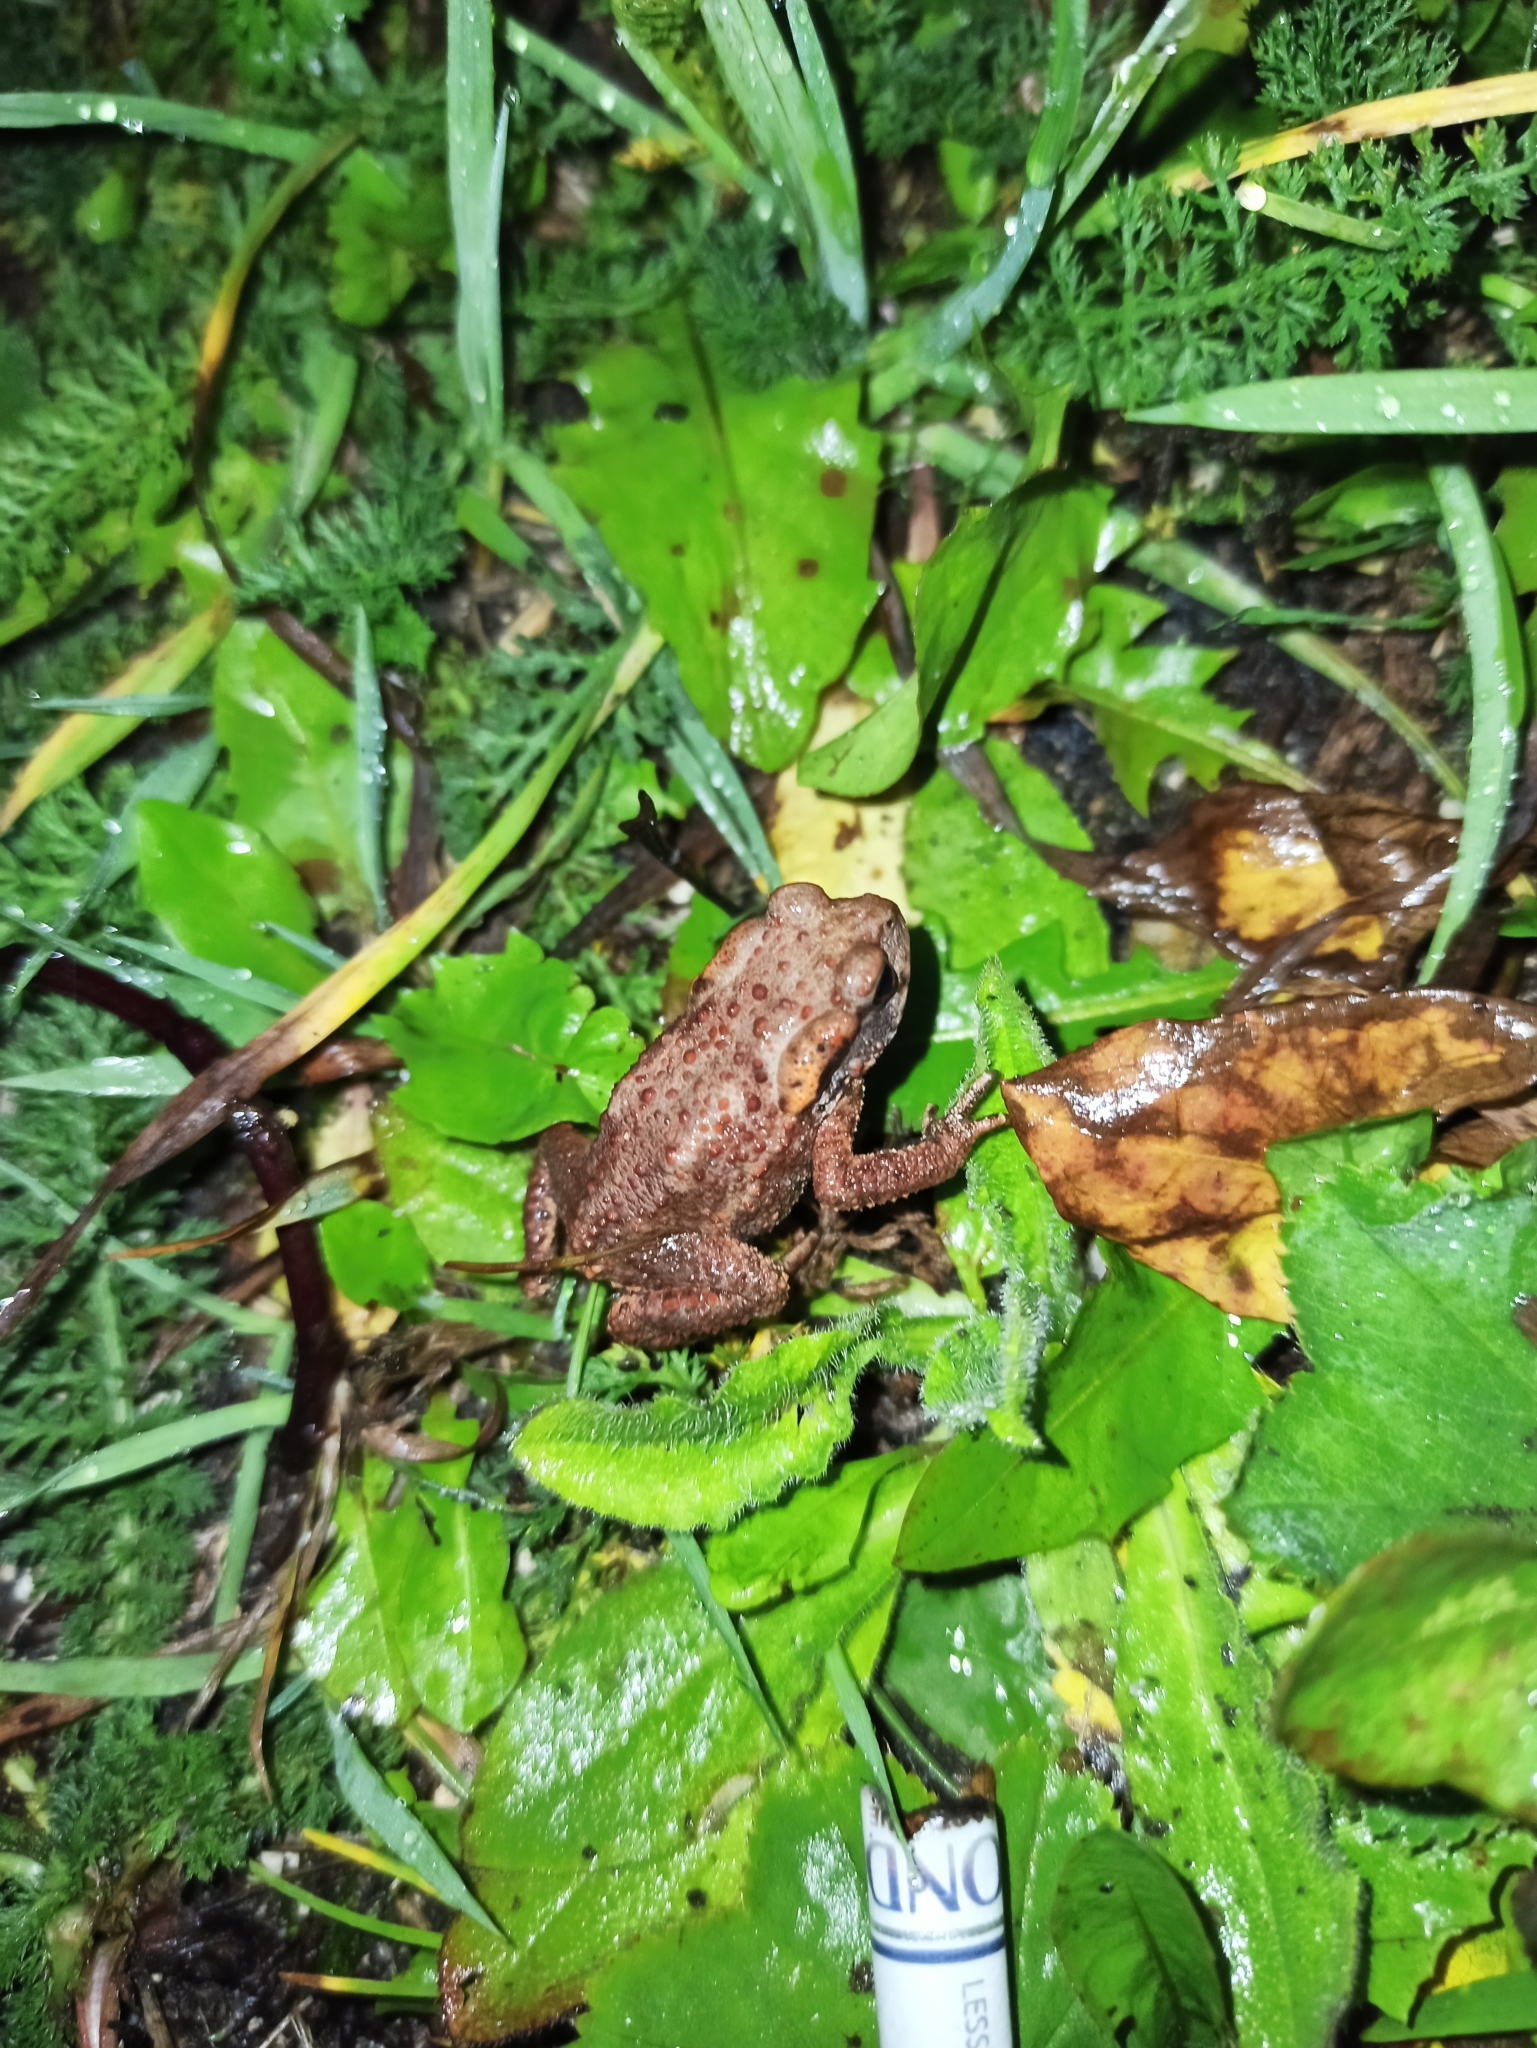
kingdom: Animalia
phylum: Chordata
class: Amphibia
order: Anura
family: Bufonidae
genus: Bufo
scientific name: Bufo verrucosissimus
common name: Caucasian toad
